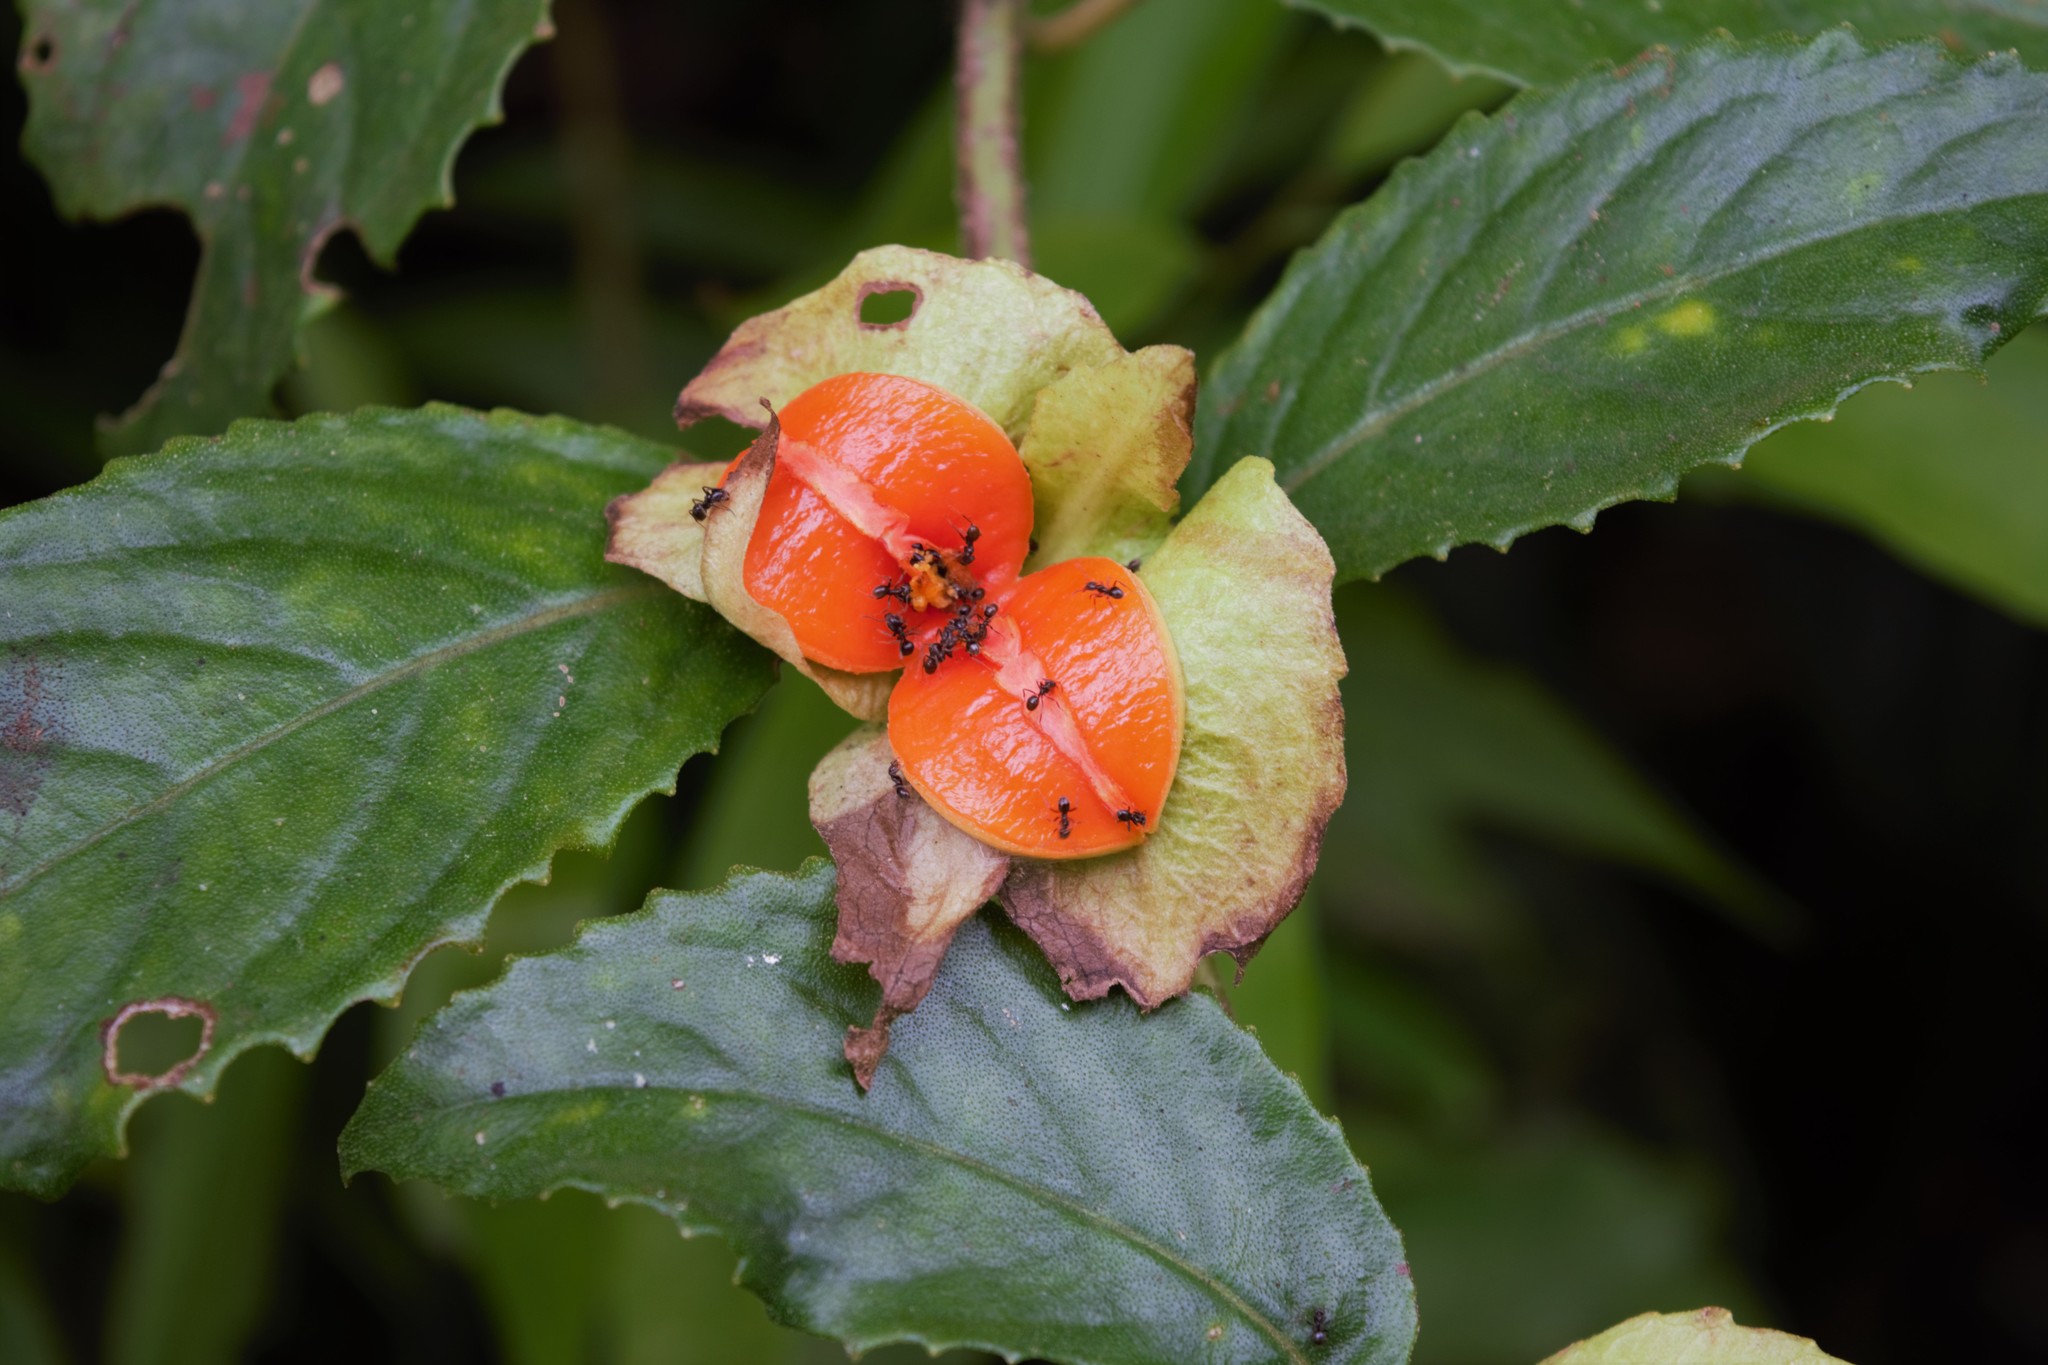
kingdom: Plantae
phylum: Tracheophyta
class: Magnoliopsida
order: Lamiales
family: Gesneriaceae
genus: Drymonia
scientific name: Drymonia serrulata
